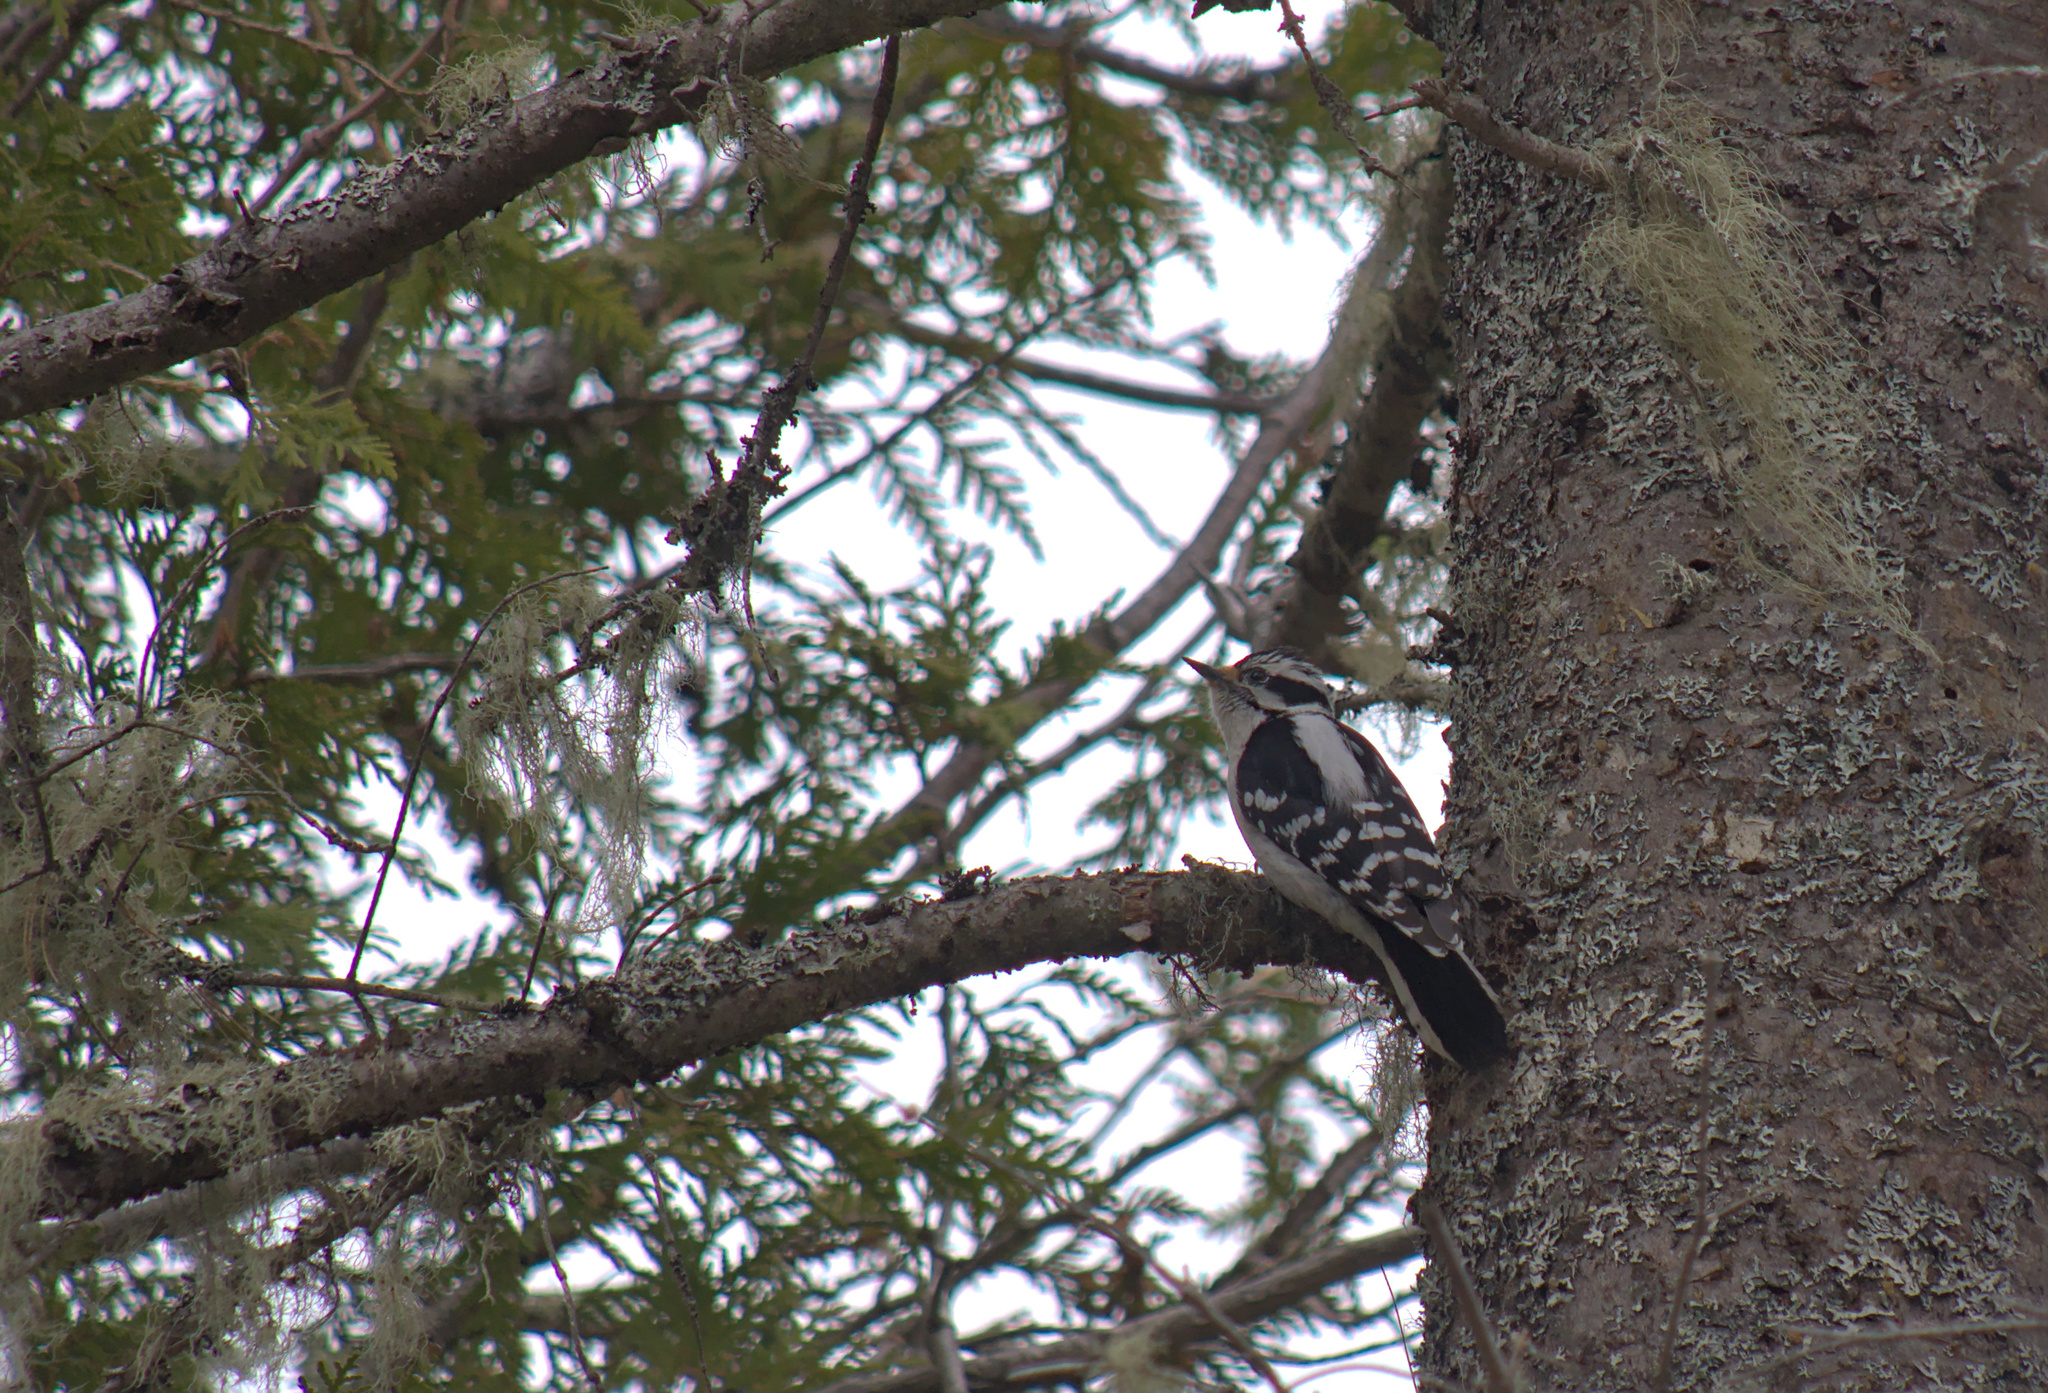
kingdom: Animalia
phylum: Chordata
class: Aves
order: Piciformes
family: Picidae
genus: Dryobates
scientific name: Dryobates pubescens
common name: Downy woodpecker
